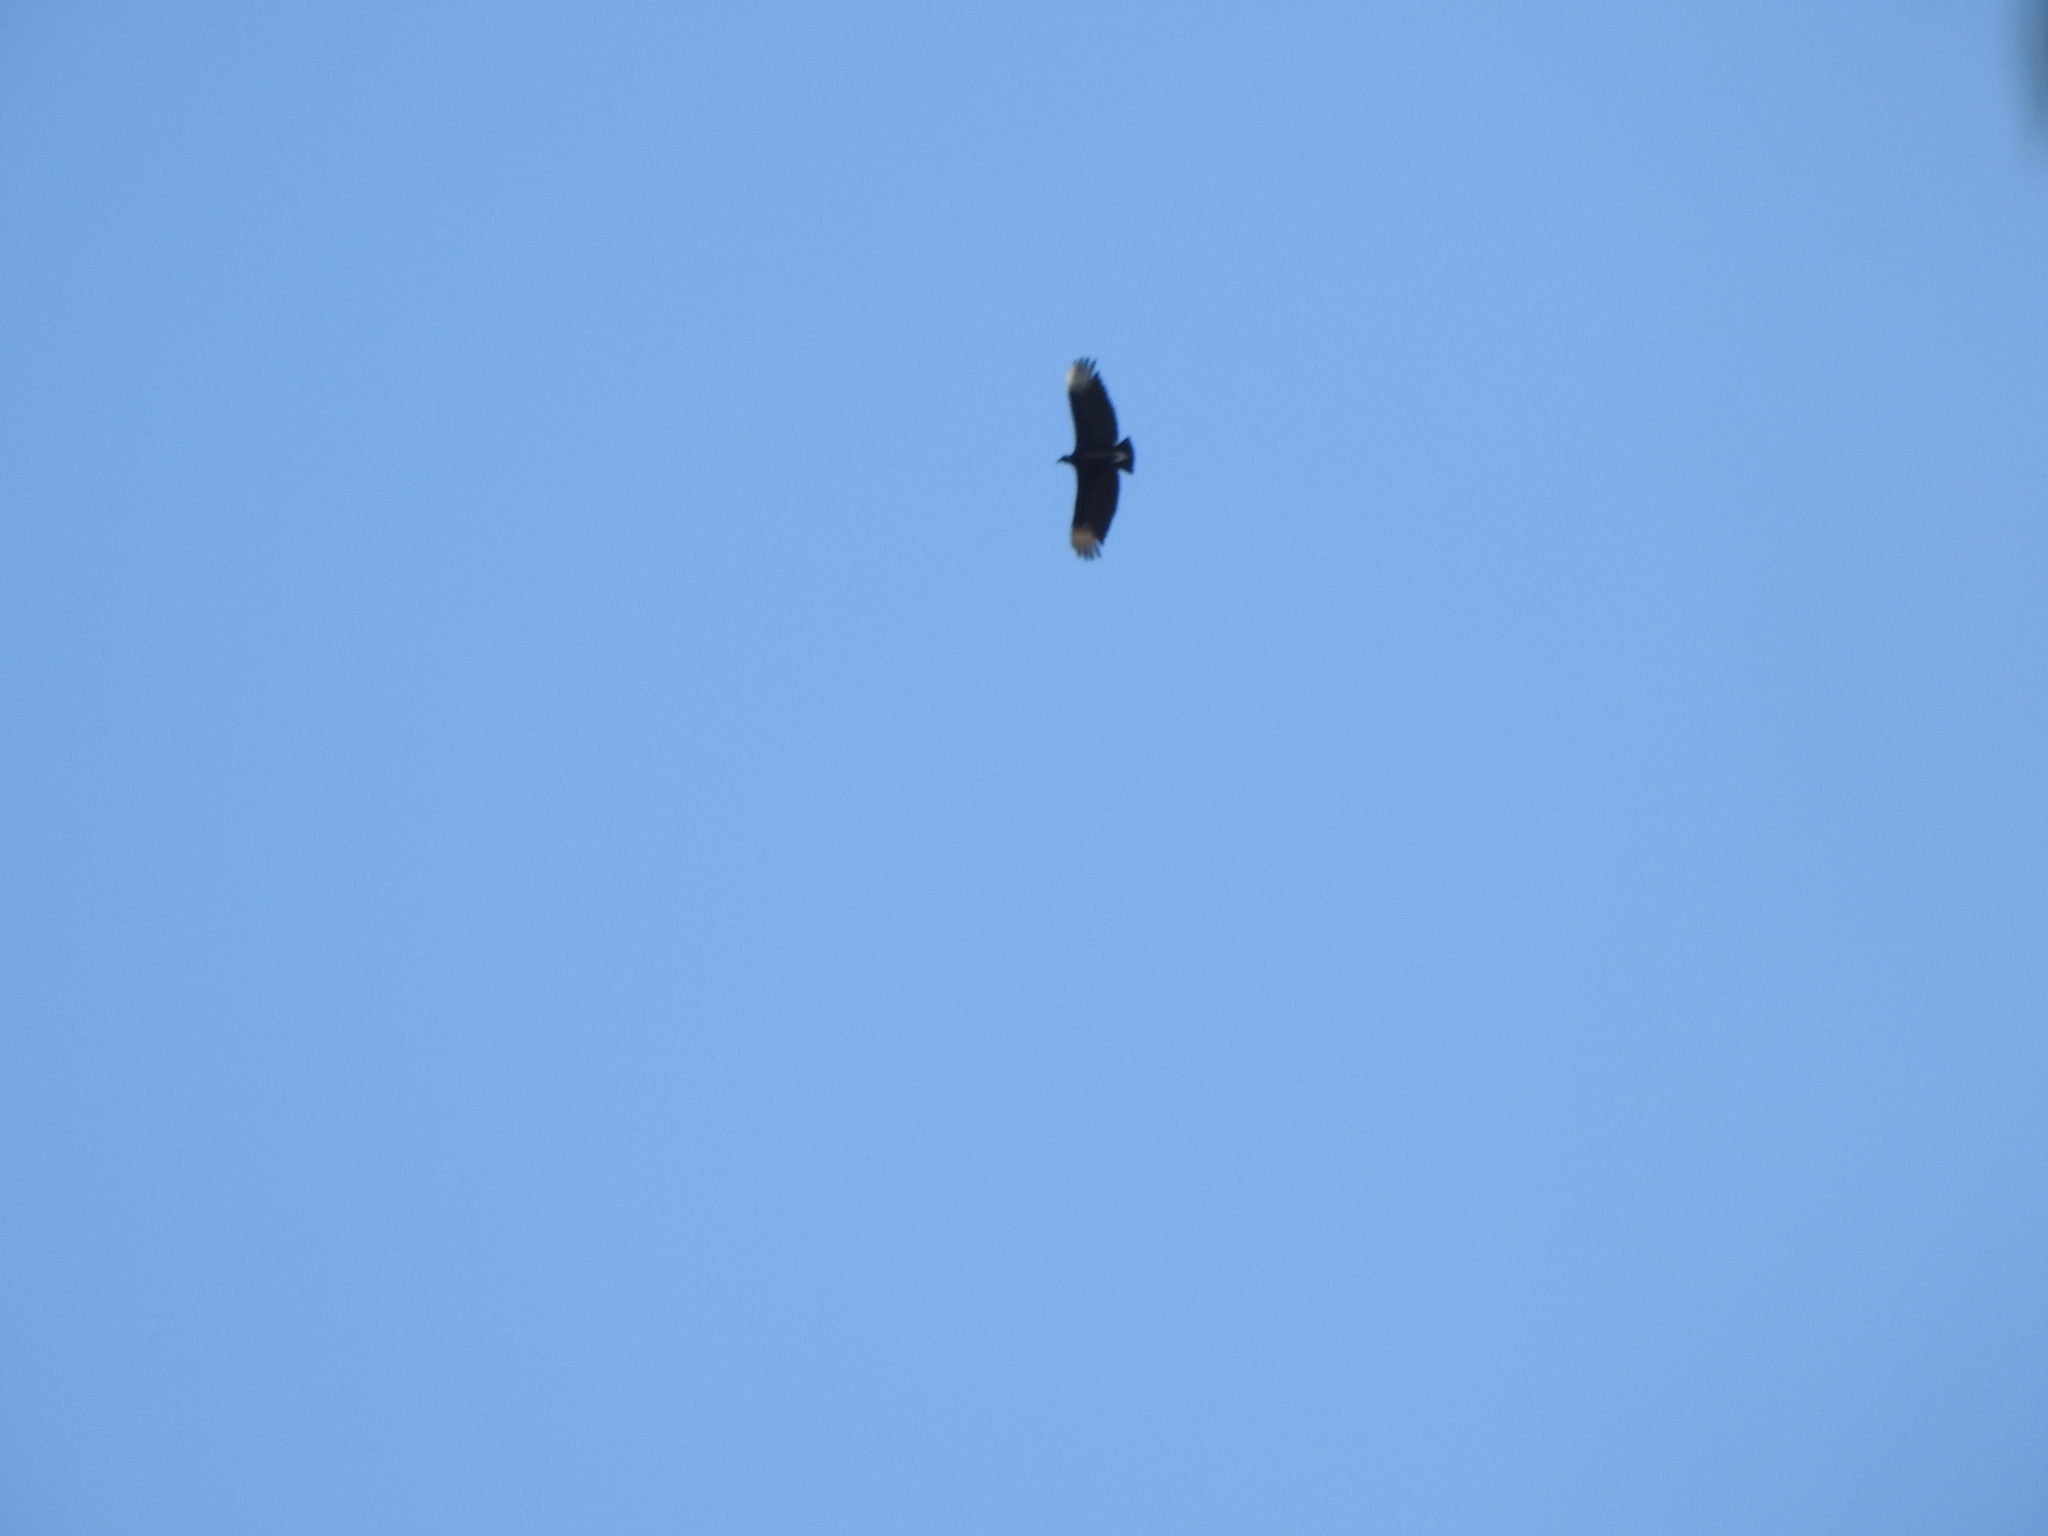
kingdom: Animalia
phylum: Chordata
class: Aves
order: Accipitriformes
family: Cathartidae
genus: Coragyps
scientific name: Coragyps atratus
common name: Black vulture
